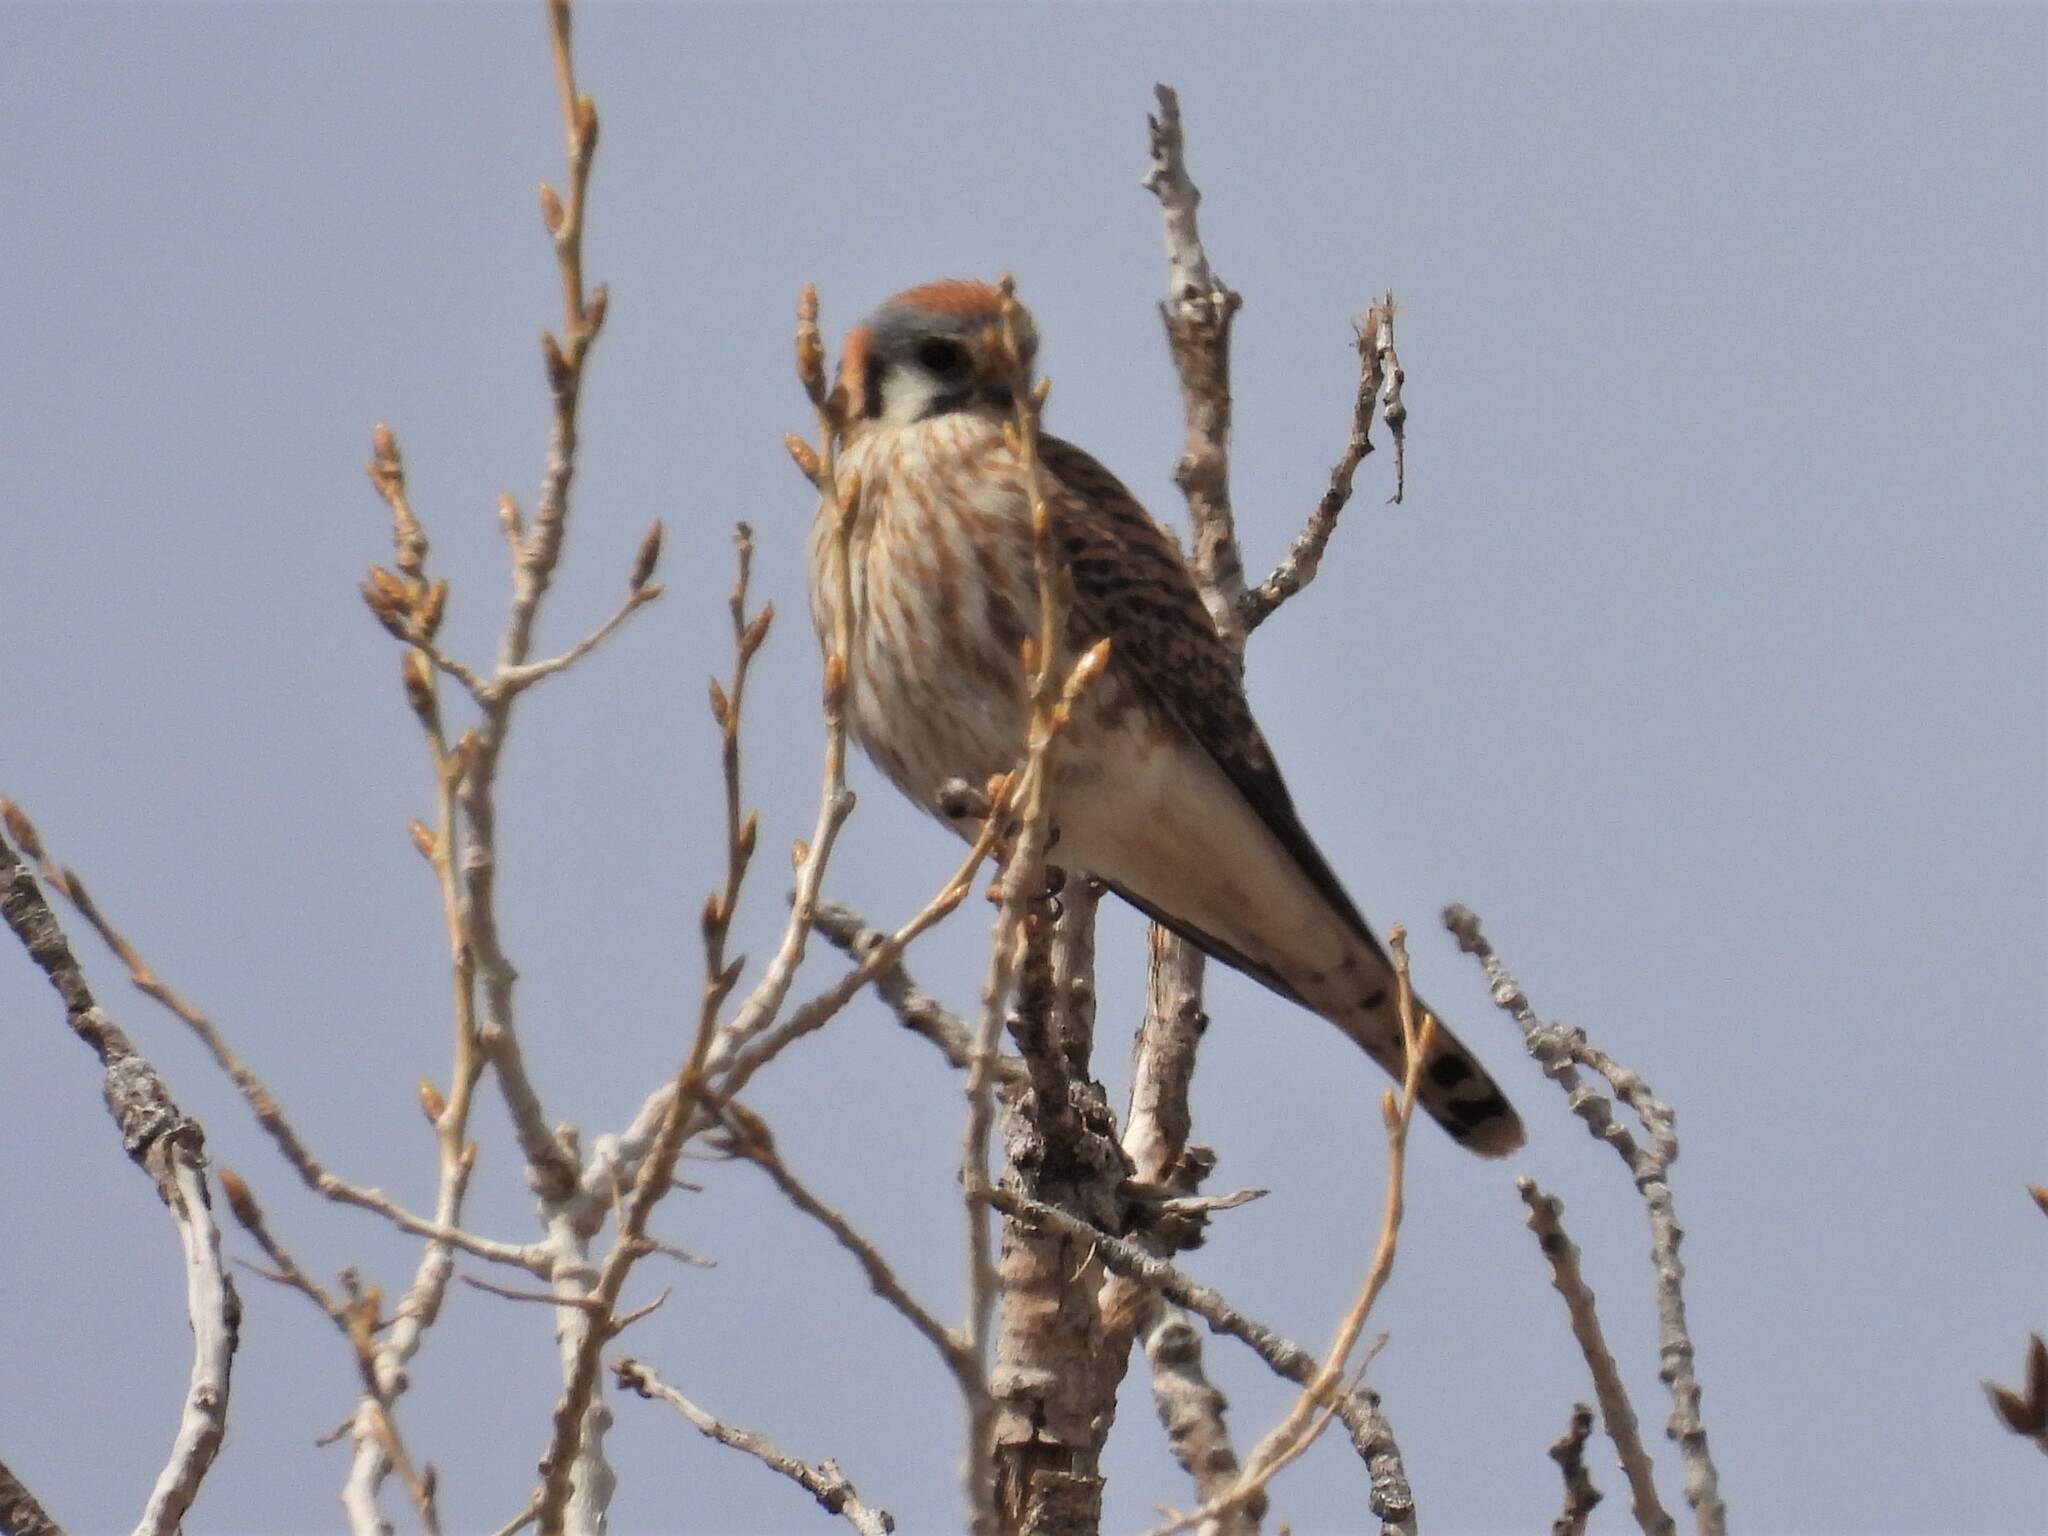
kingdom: Animalia
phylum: Chordata
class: Aves
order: Falconiformes
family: Falconidae
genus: Falco
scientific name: Falco sparverius
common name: American kestrel
